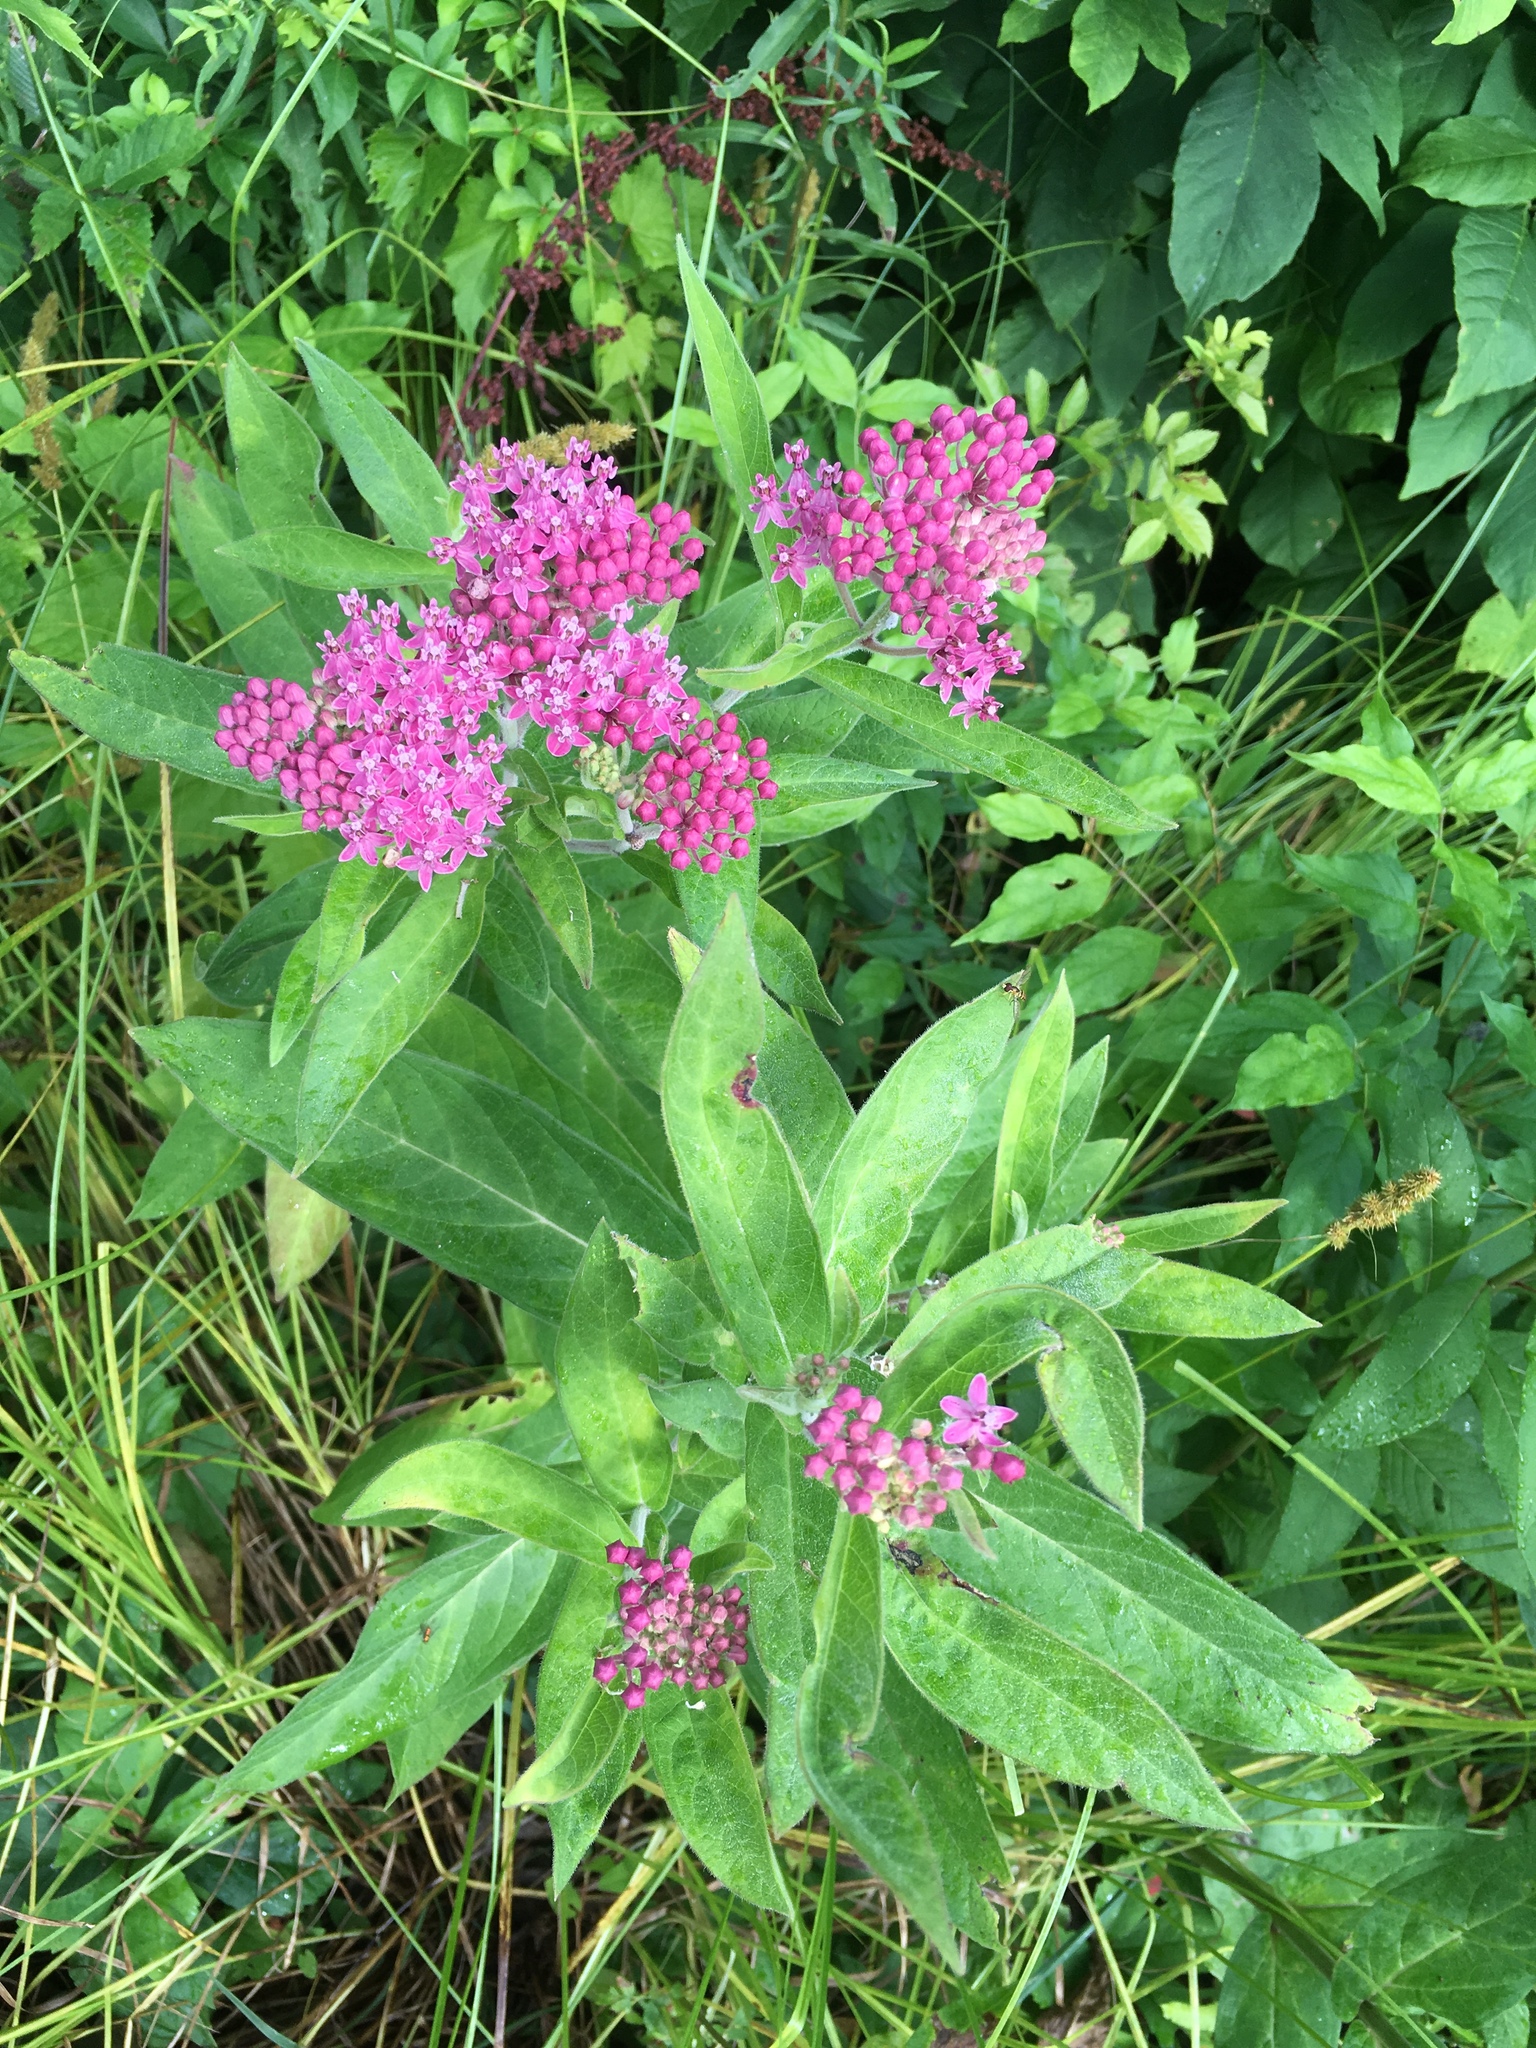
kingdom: Plantae
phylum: Tracheophyta
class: Magnoliopsida
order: Gentianales
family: Apocynaceae
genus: Asclepias
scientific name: Asclepias incarnata
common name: Swamp milkweed
